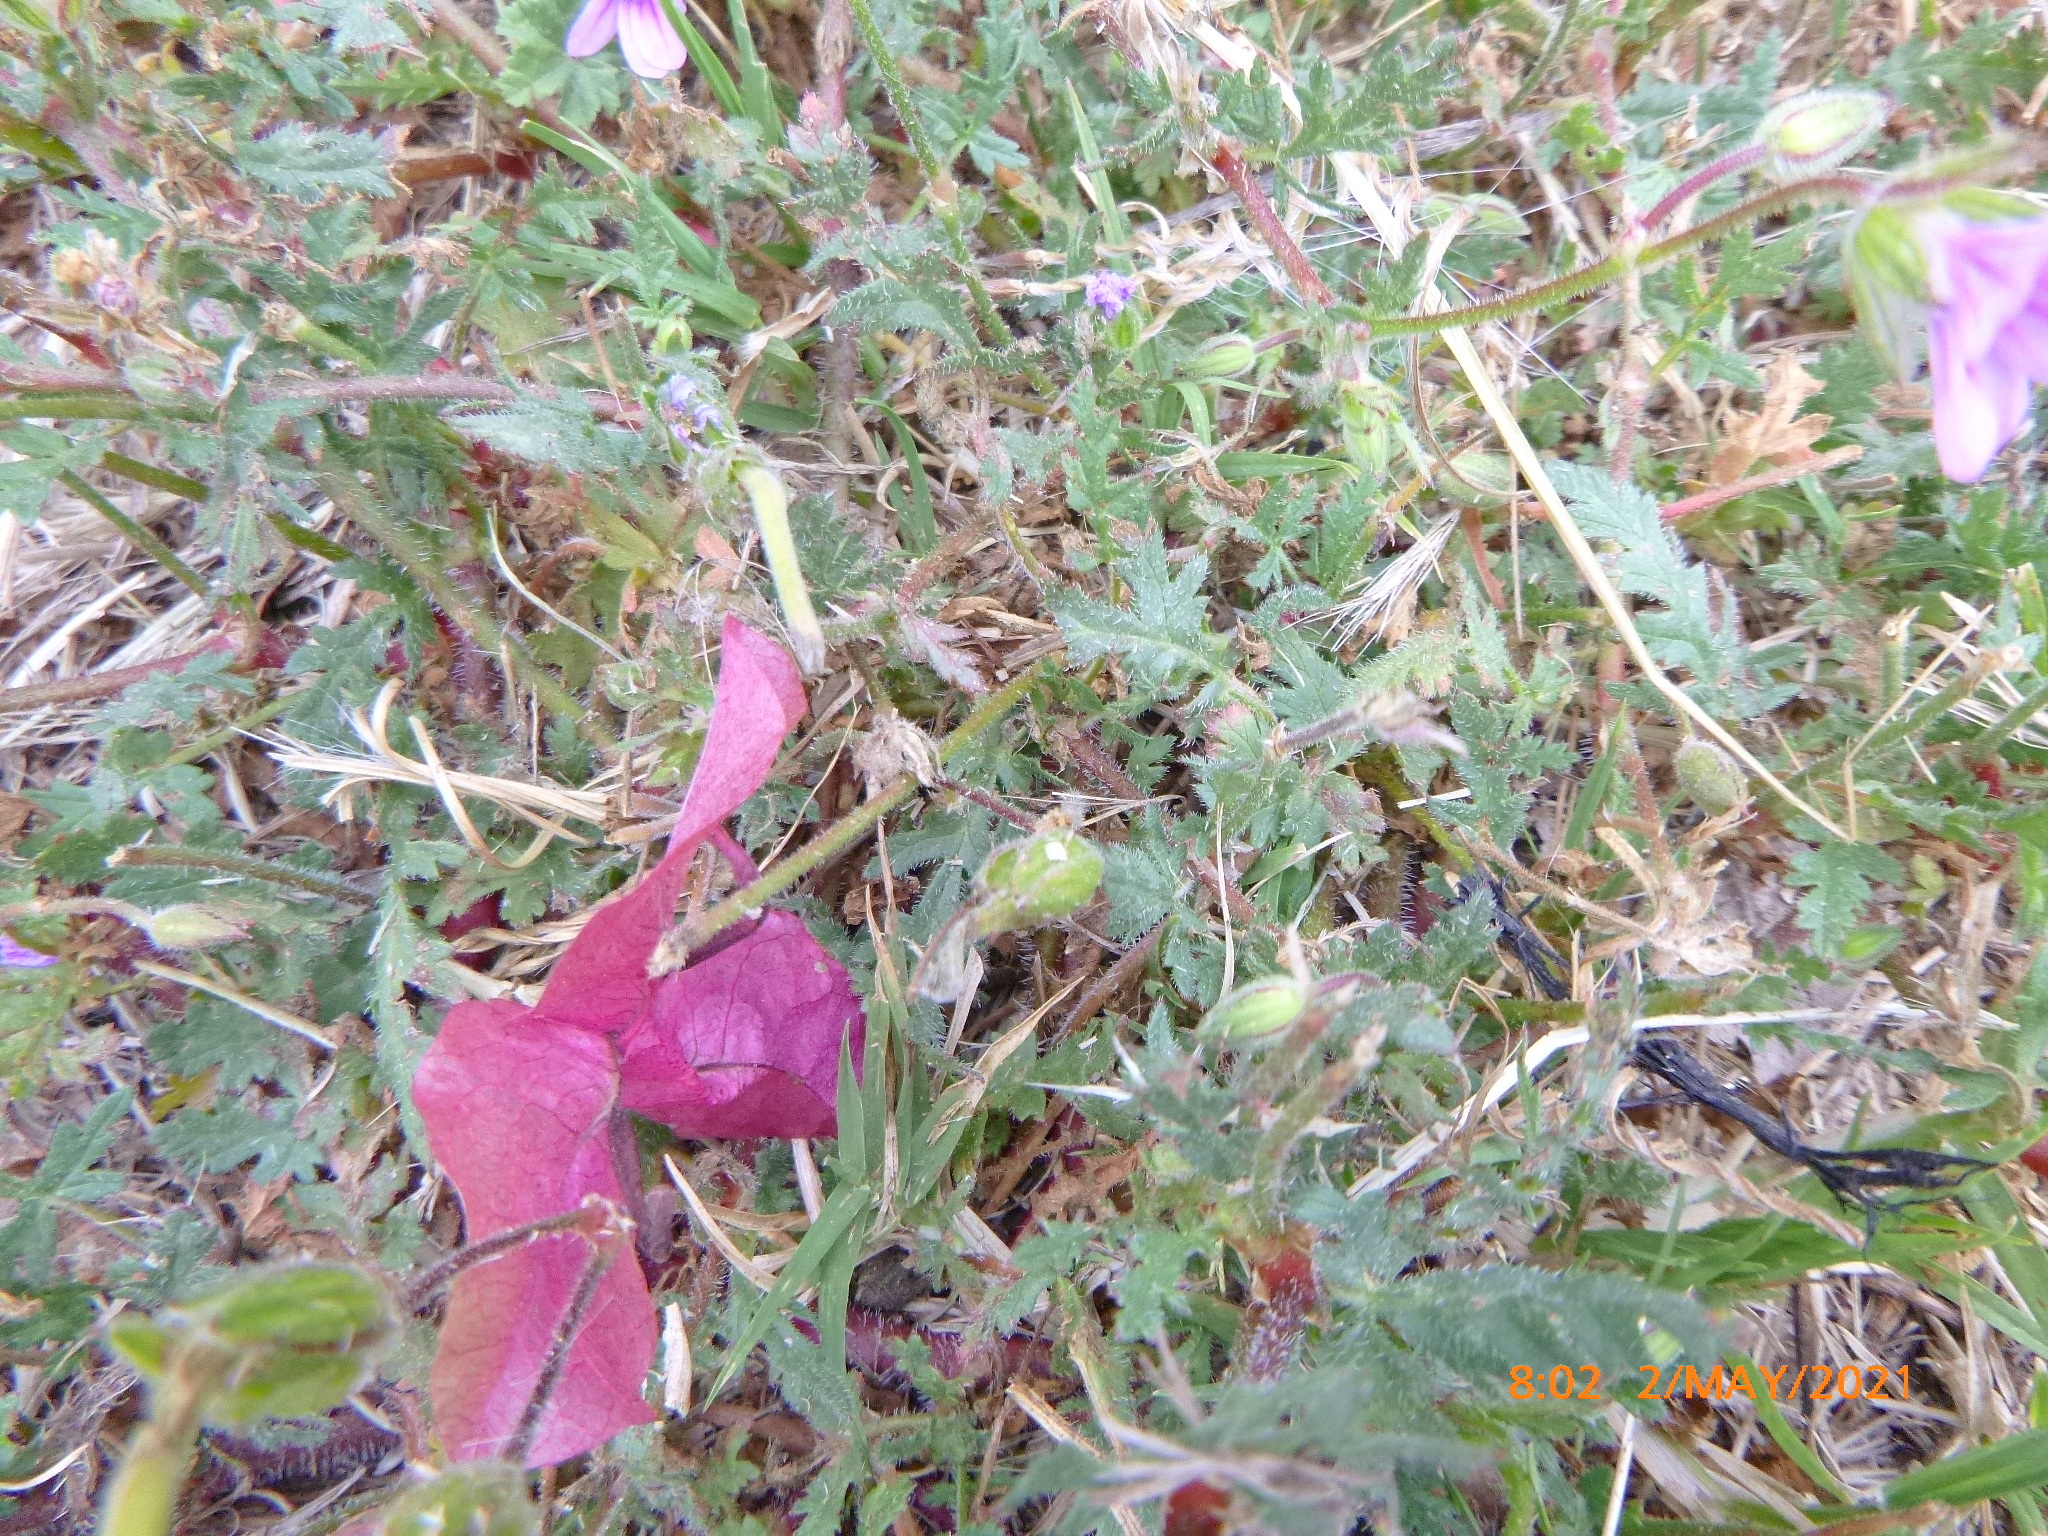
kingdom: Plantae
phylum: Tracheophyta
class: Magnoliopsida
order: Geraniales
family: Geraniaceae
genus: Erodium
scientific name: Erodium botrys
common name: Mediterranean stork's-bill
